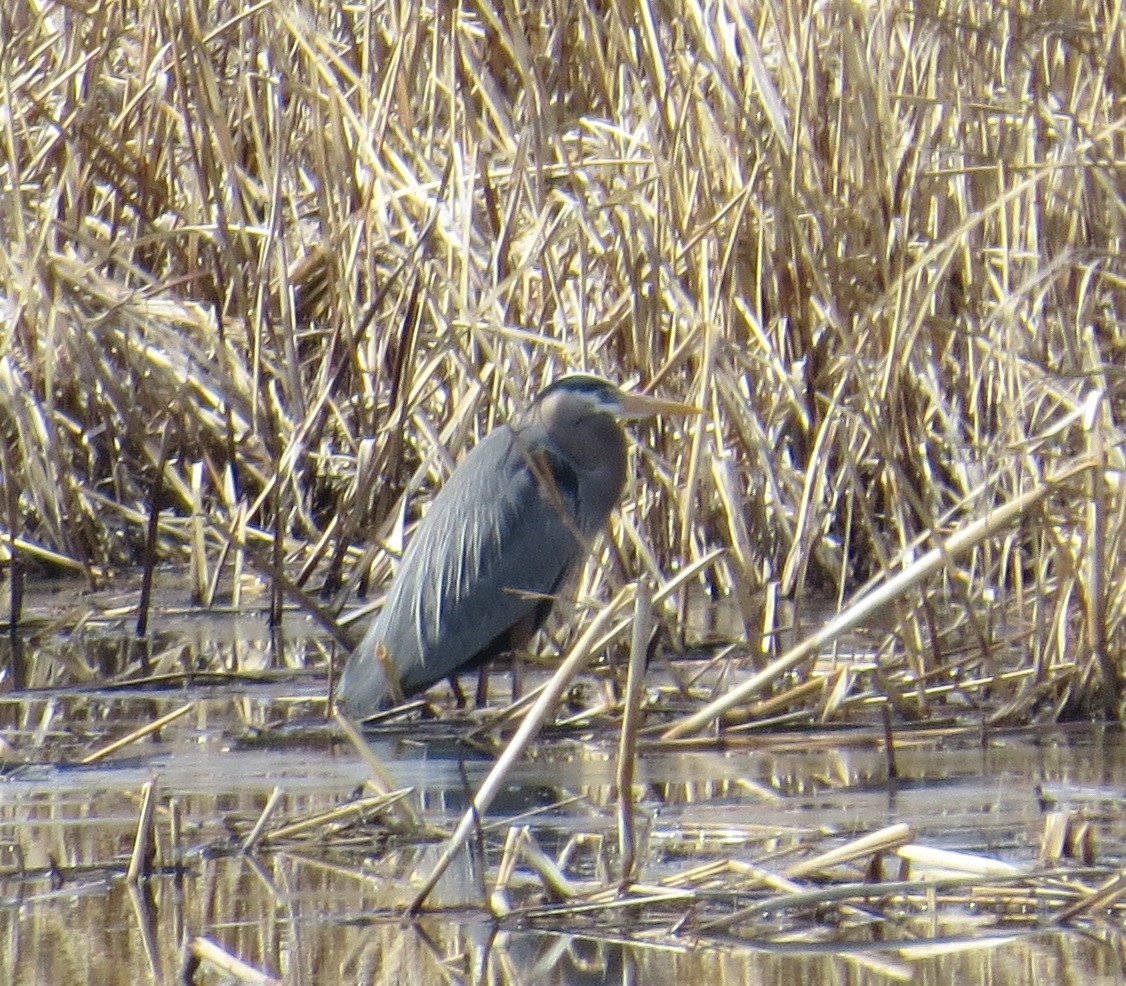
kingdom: Animalia
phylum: Chordata
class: Aves
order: Pelecaniformes
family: Ardeidae
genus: Ardea
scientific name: Ardea herodias
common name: Great blue heron
